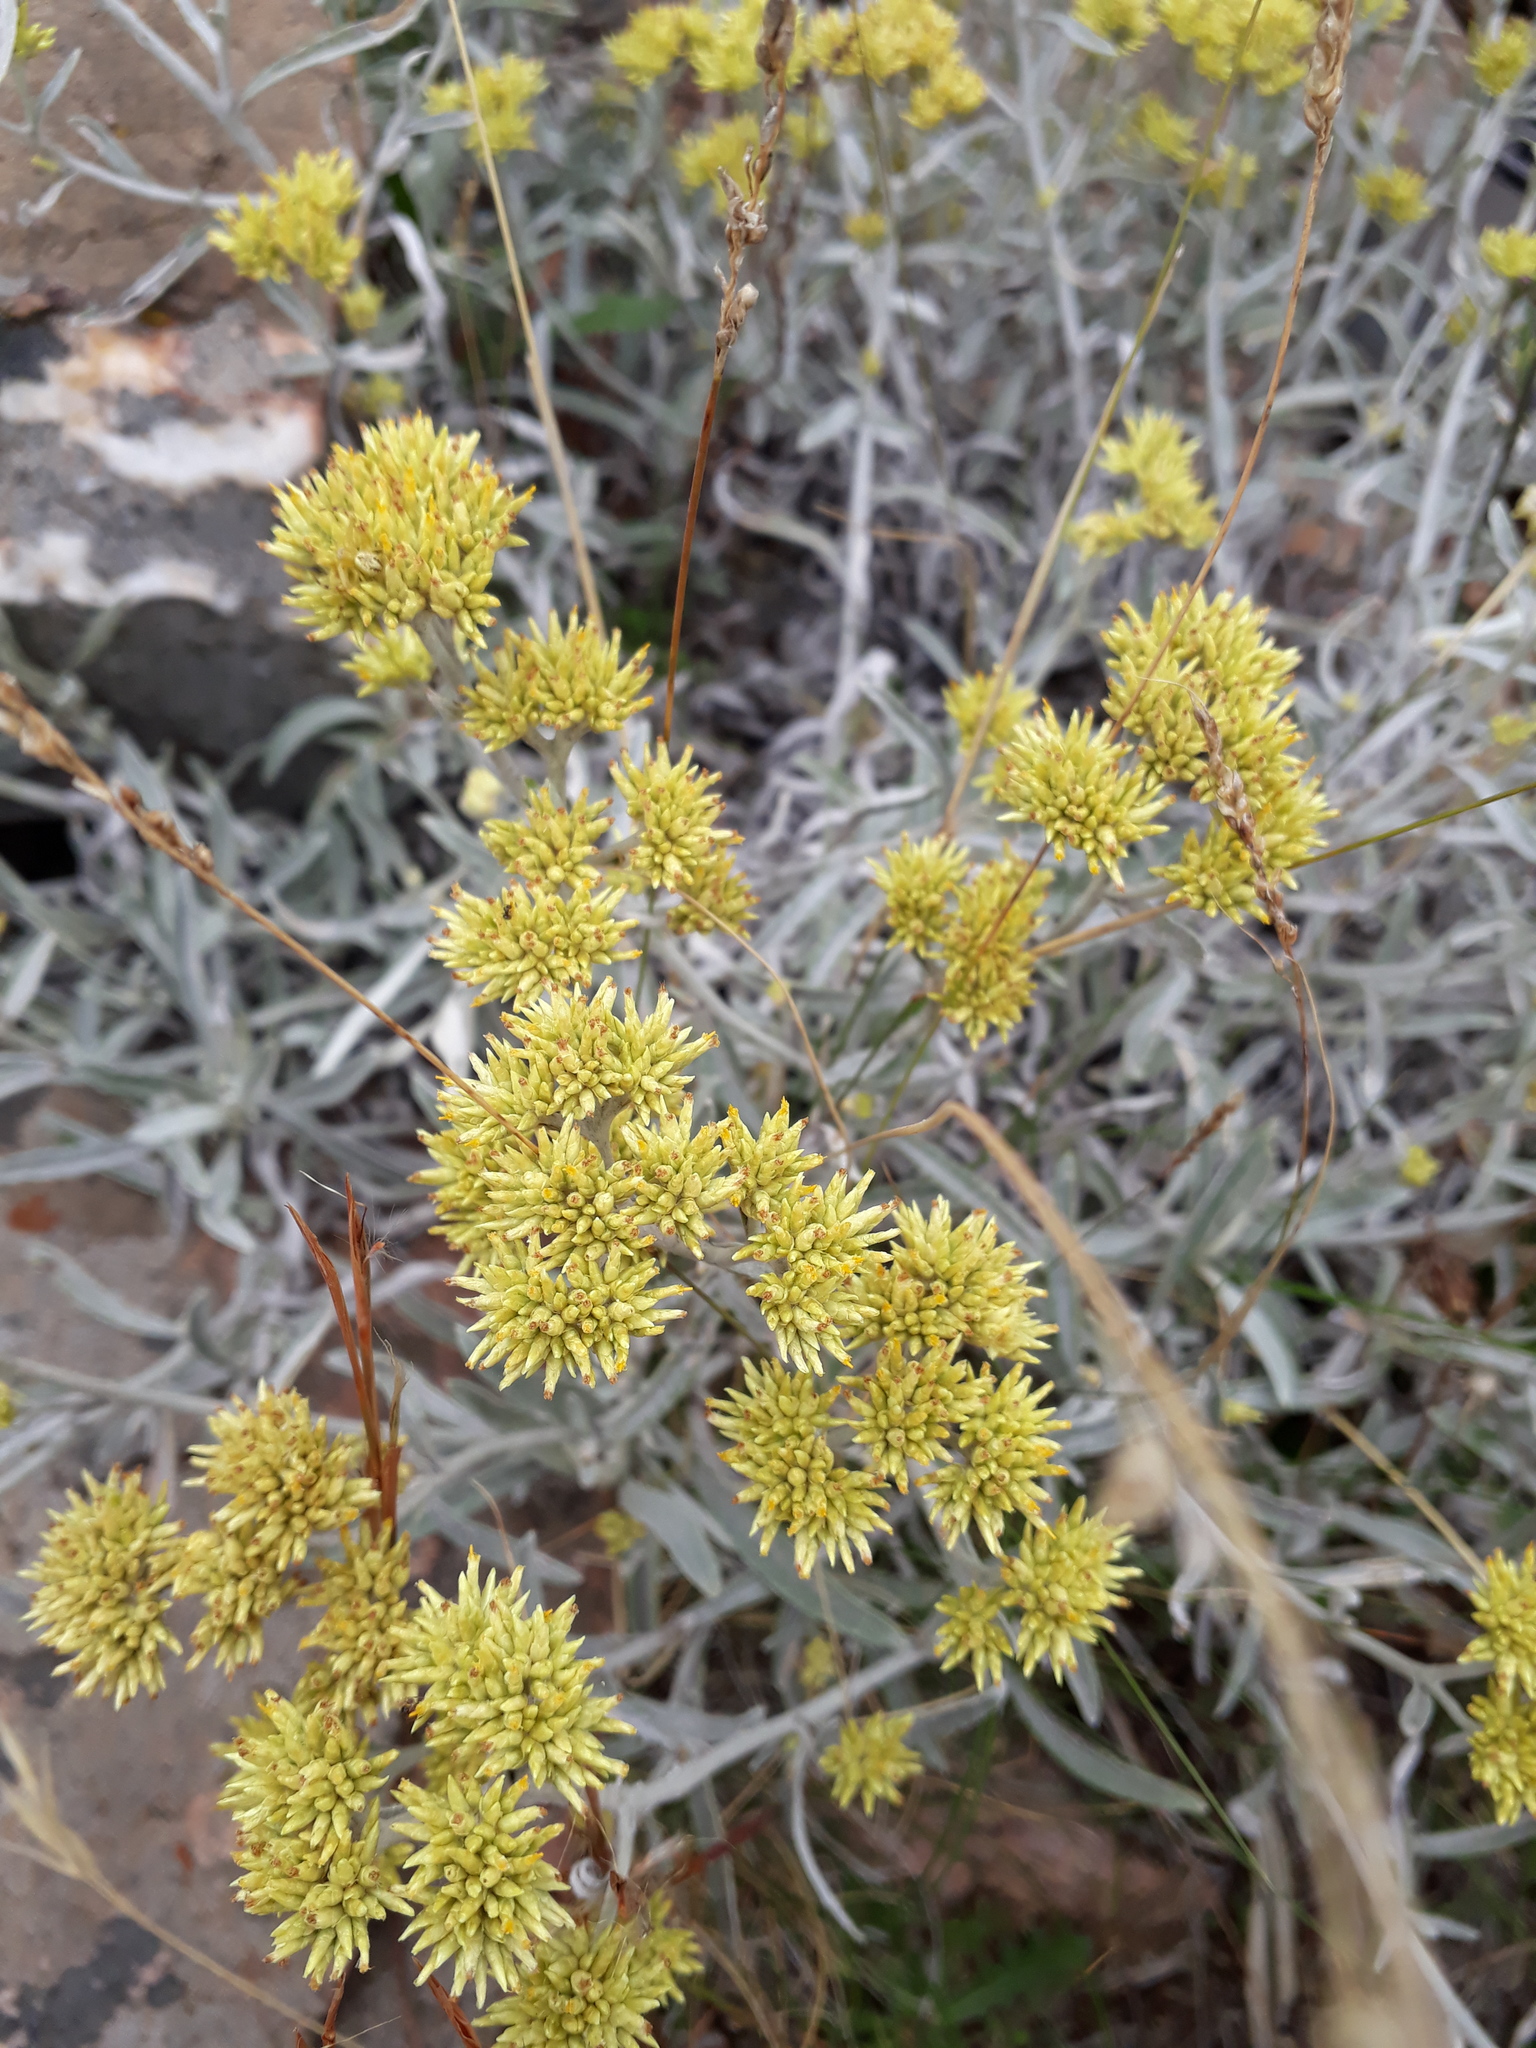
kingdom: Plantae
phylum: Tracheophyta
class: Magnoliopsida
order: Asterales
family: Asteraceae
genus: Achyrocline
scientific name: Achyrocline satureioides
